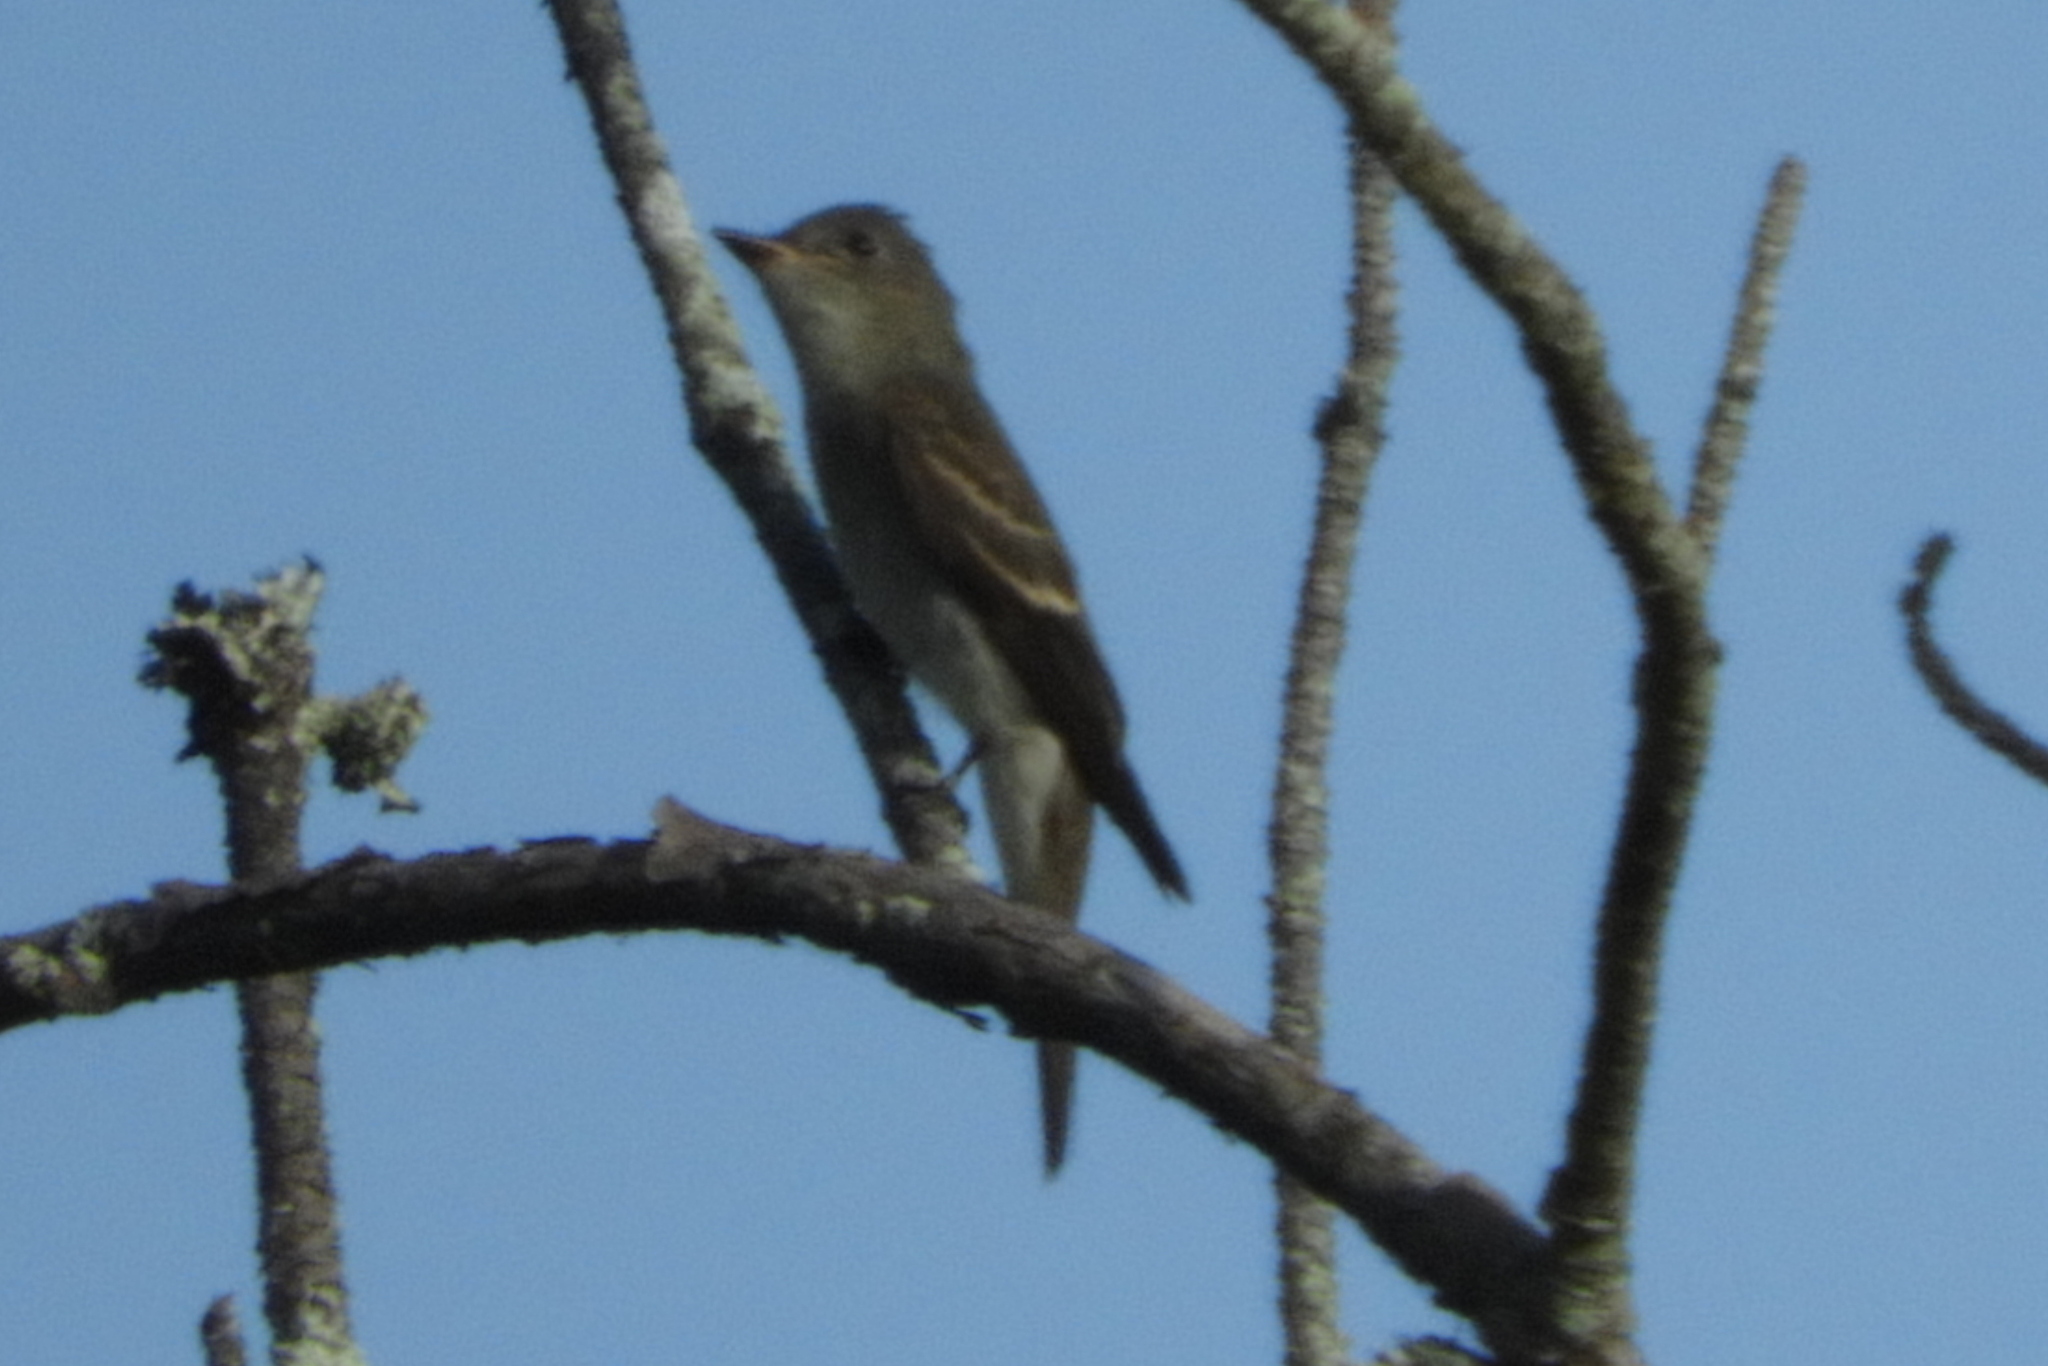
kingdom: Animalia
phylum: Chordata
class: Aves
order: Passeriformes
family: Tyrannidae
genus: Contopus
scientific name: Contopus virens
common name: Eastern wood-pewee
